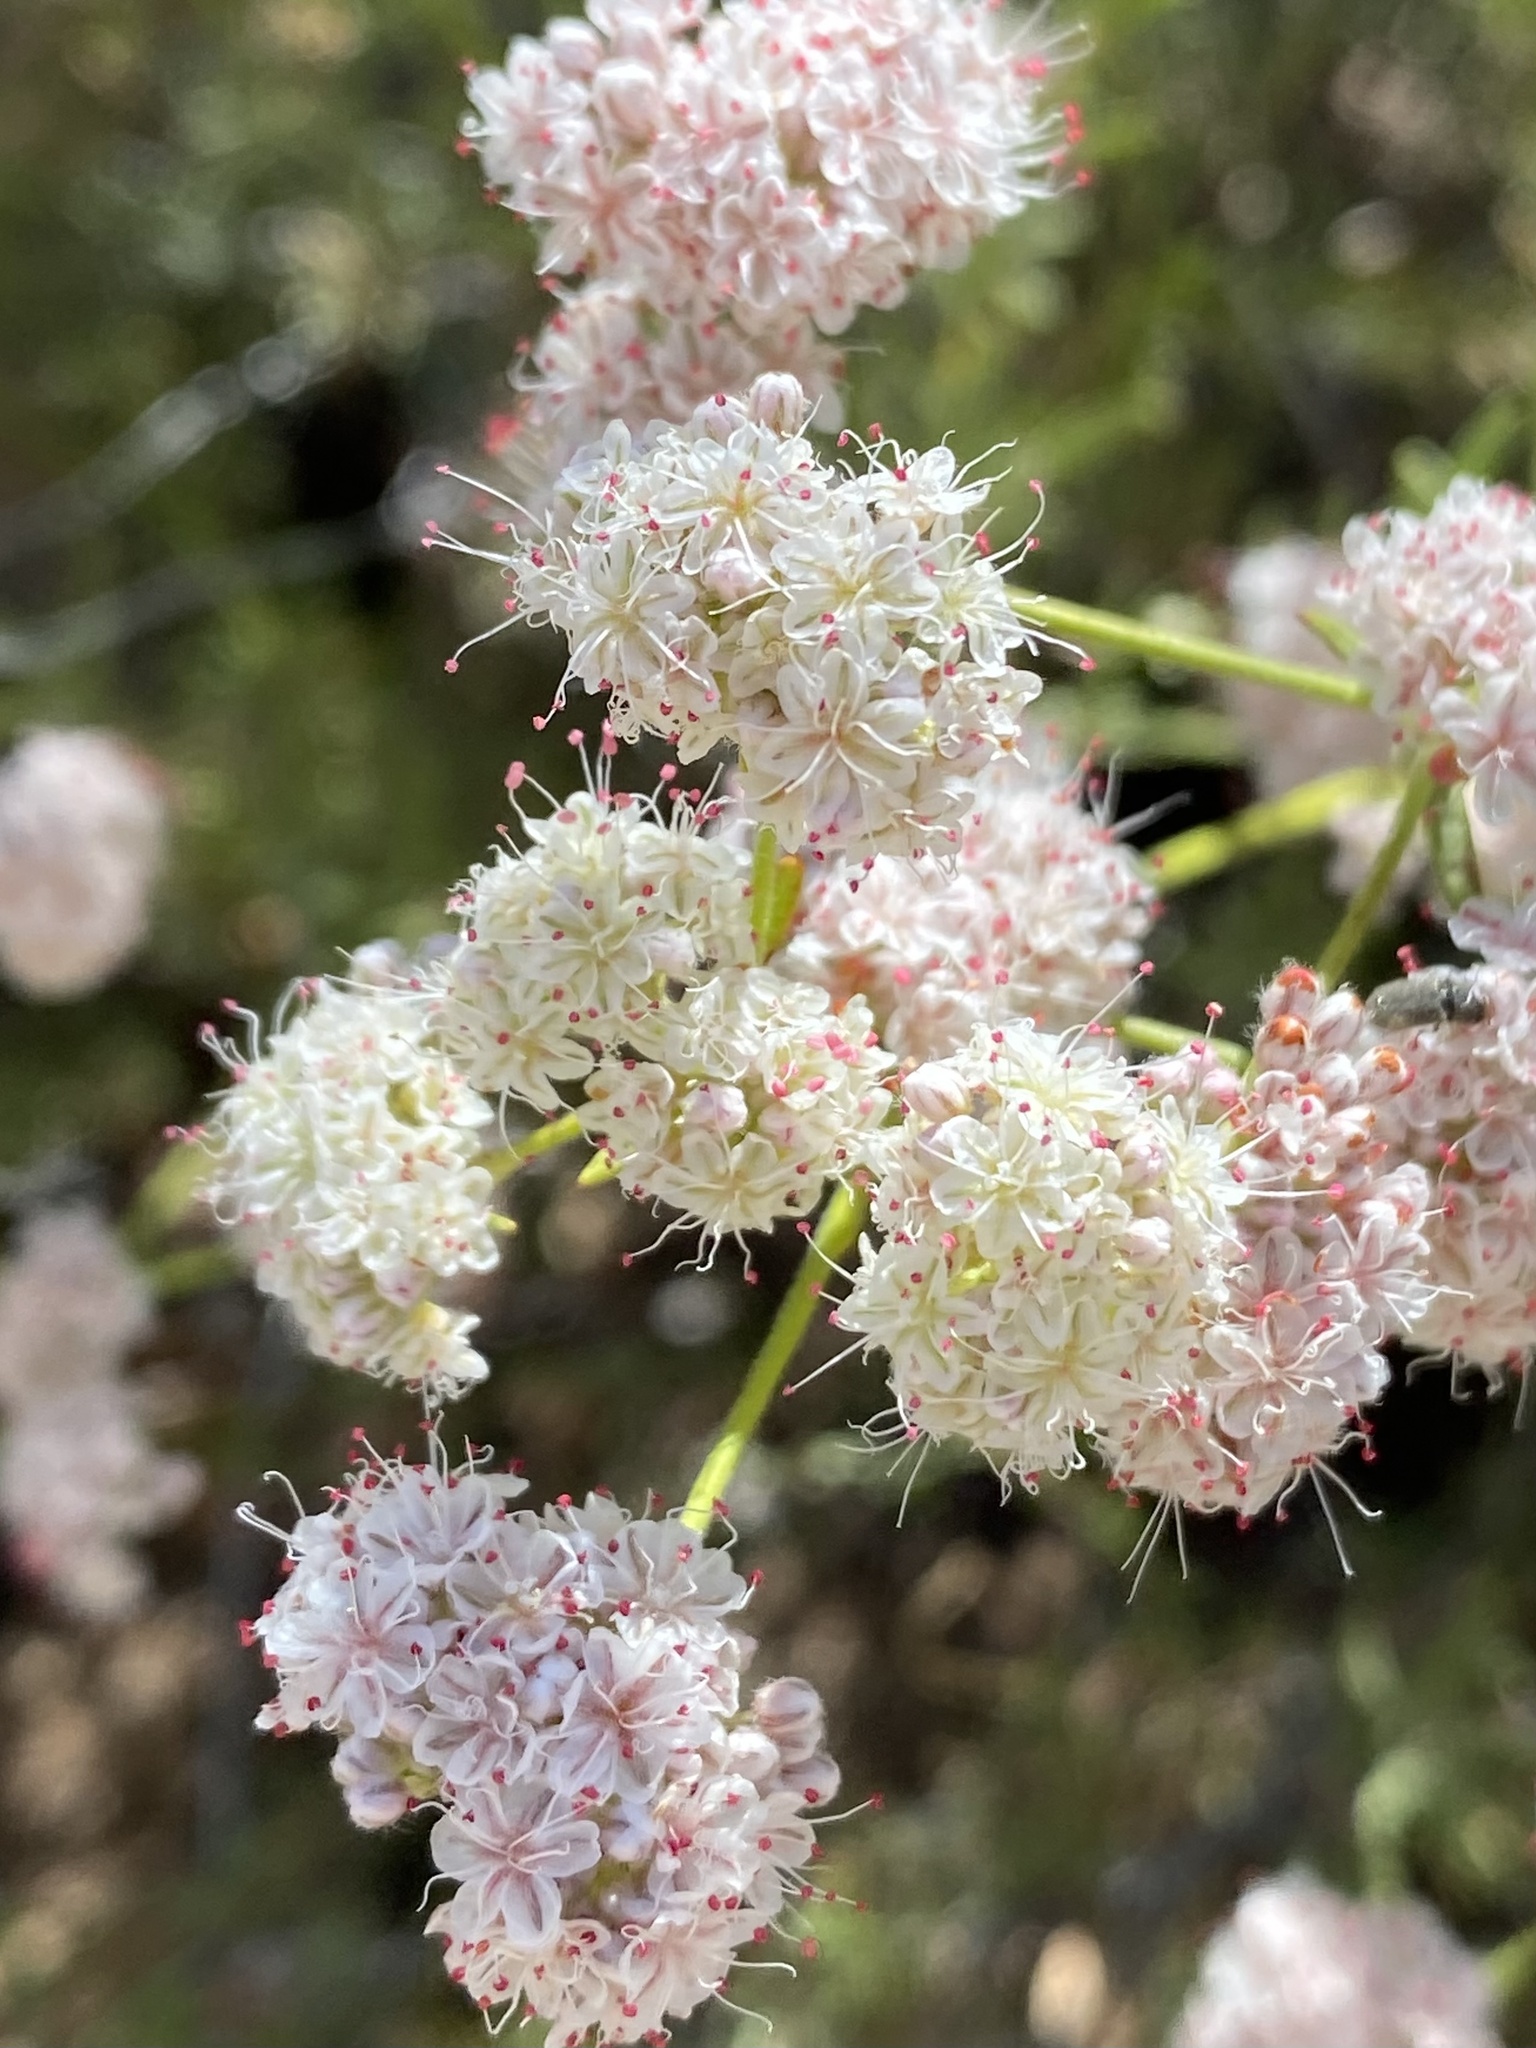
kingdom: Plantae
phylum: Tracheophyta
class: Magnoliopsida
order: Caryophyllales
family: Polygonaceae
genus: Eriogonum
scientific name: Eriogonum fasciculatum
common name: California wild buckwheat
